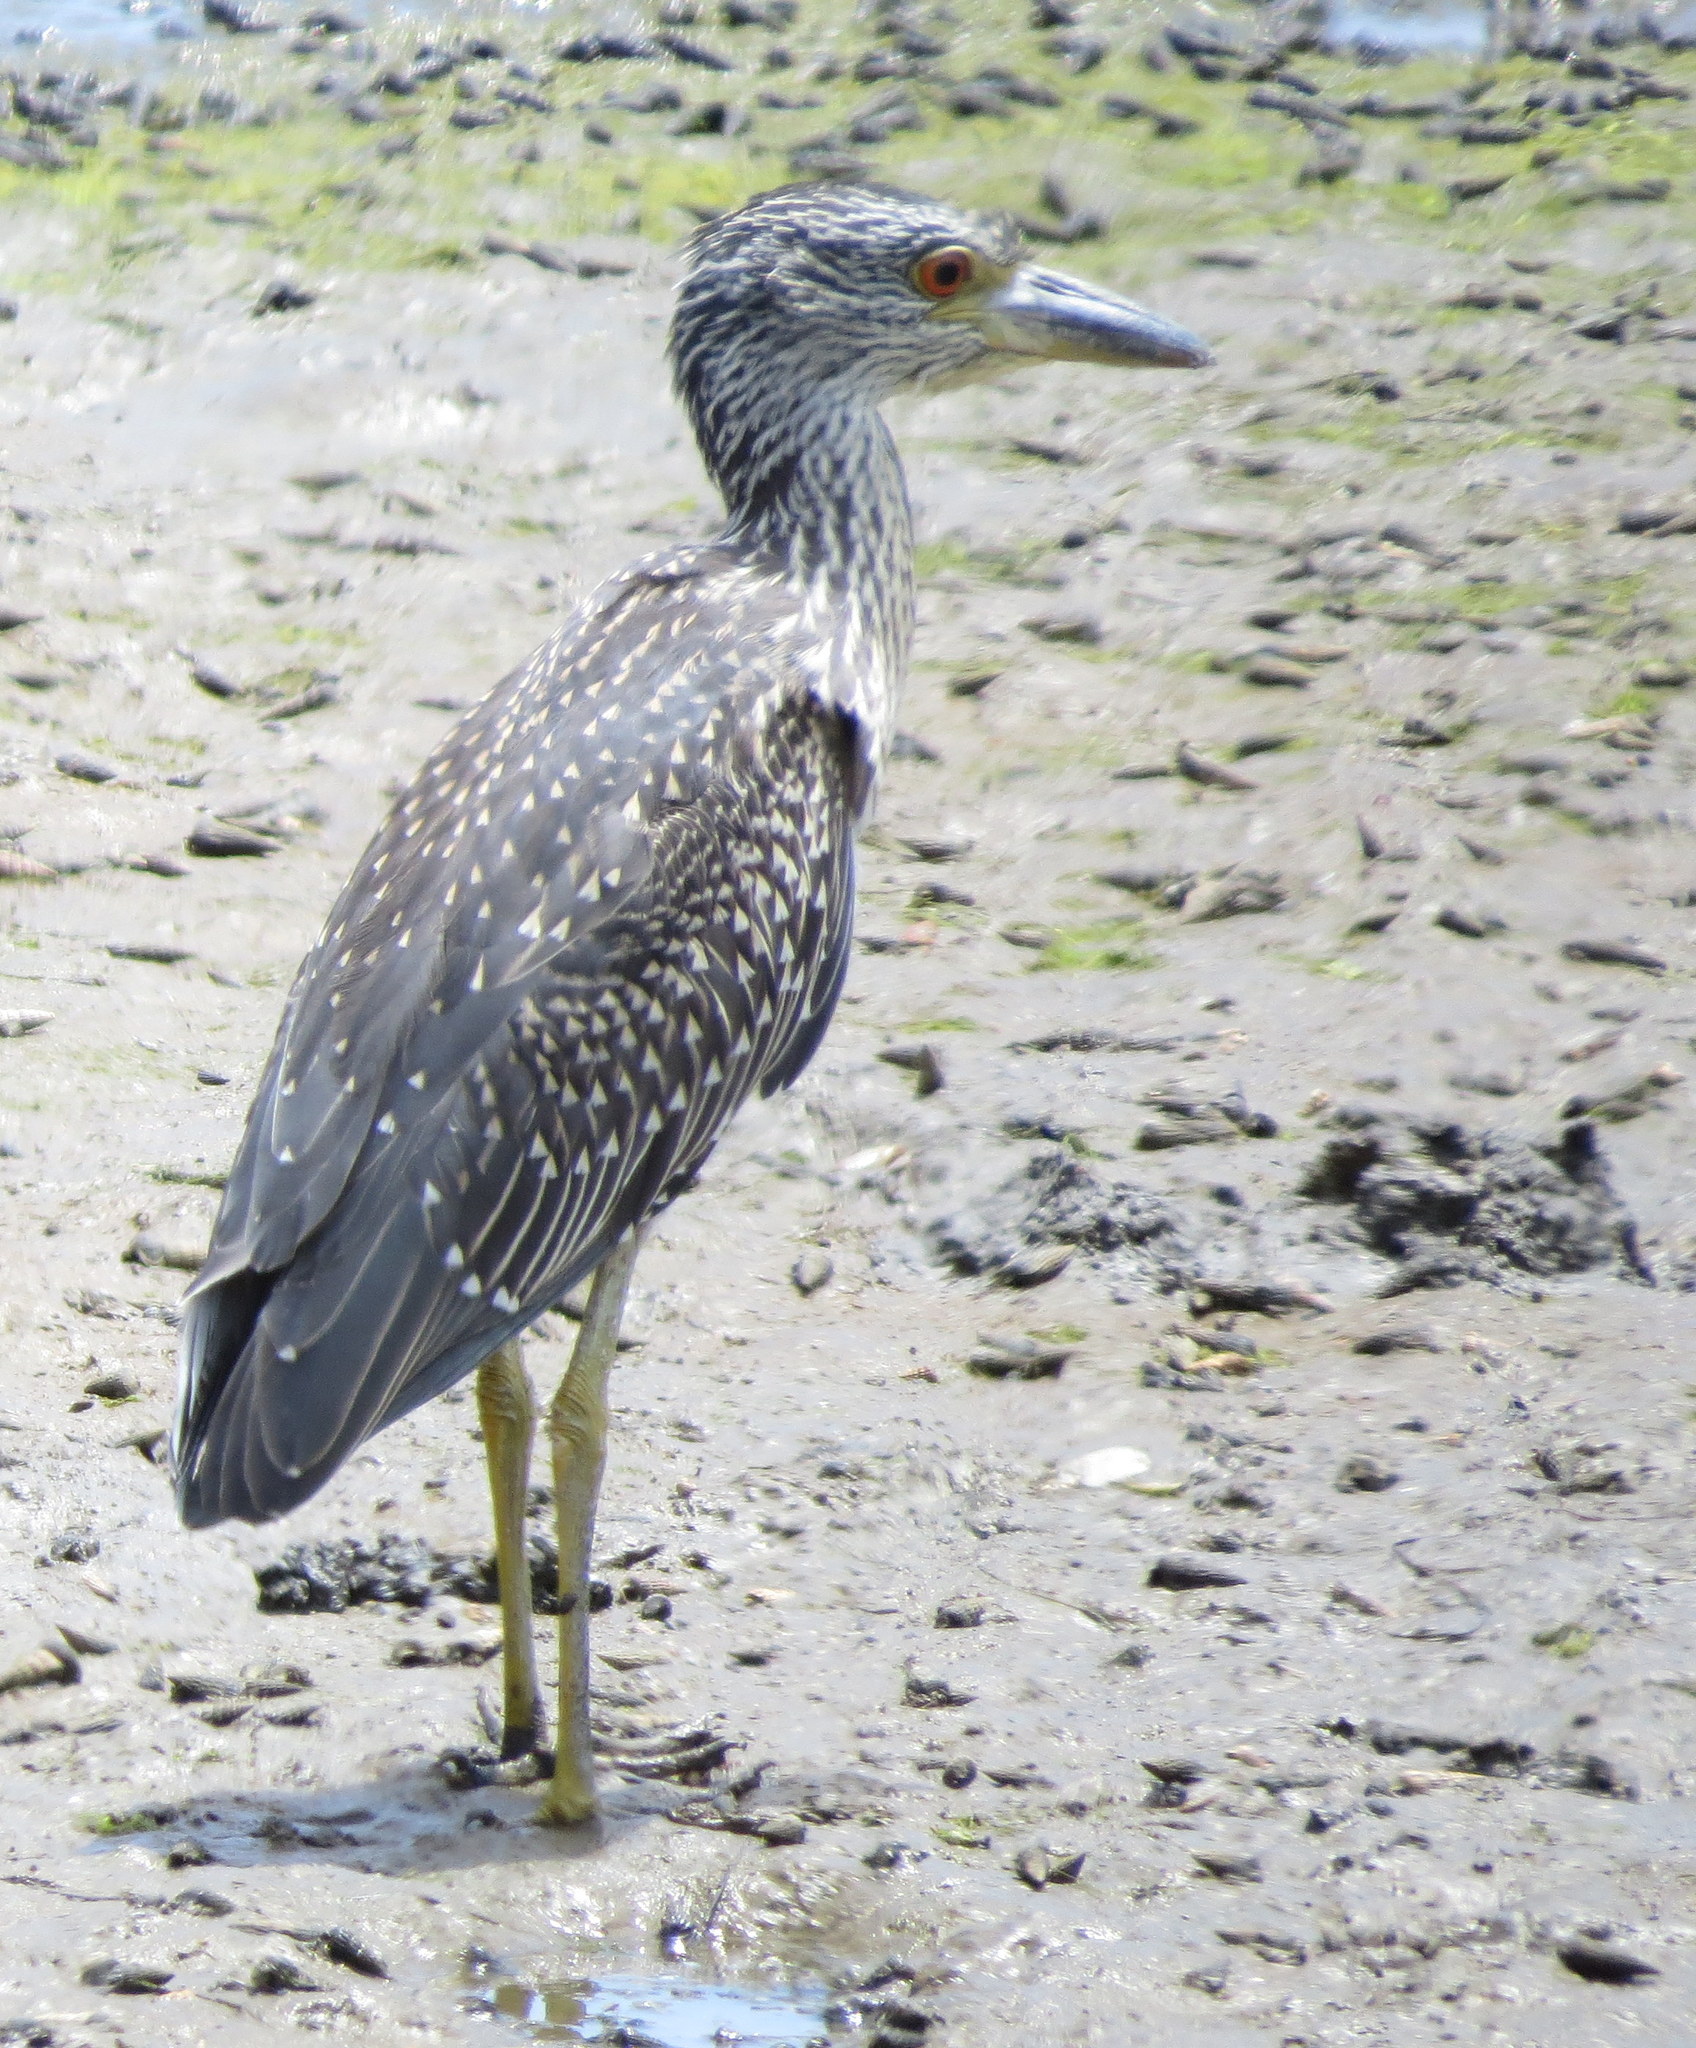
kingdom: Animalia
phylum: Chordata
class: Aves
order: Pelecaniformes
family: Ardeidae
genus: Nyctanassa
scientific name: Nyctanassa violacea
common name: Yellow-crowned night heron
